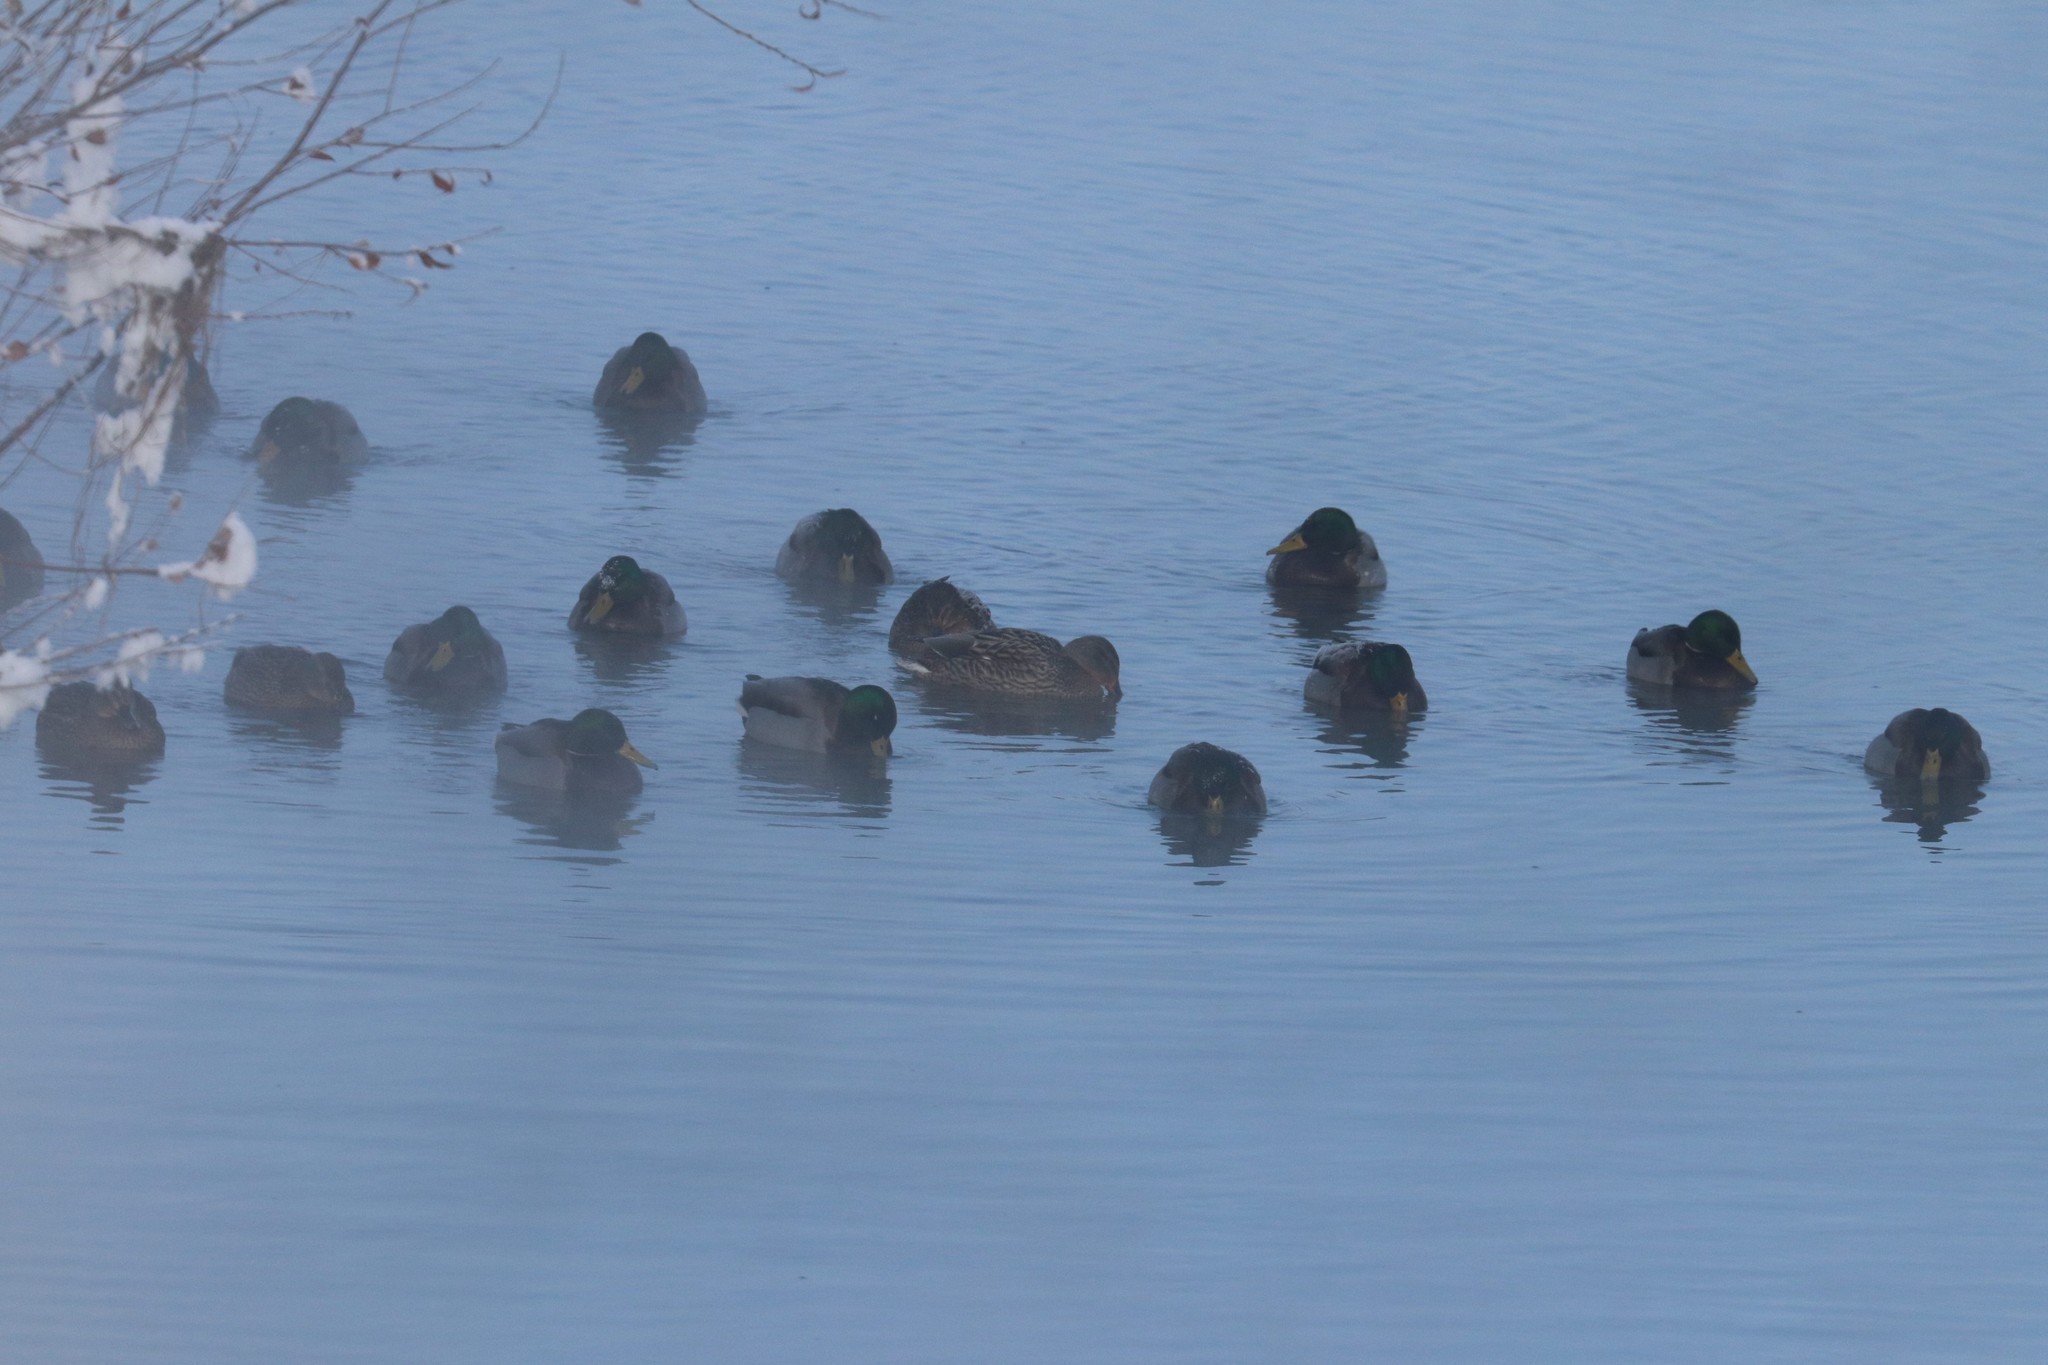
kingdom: Animalia
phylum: Chordata
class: Aves
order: Anseriformes
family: Anatidae
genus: Anas
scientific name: Anas platyrhynchos
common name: Mallard
